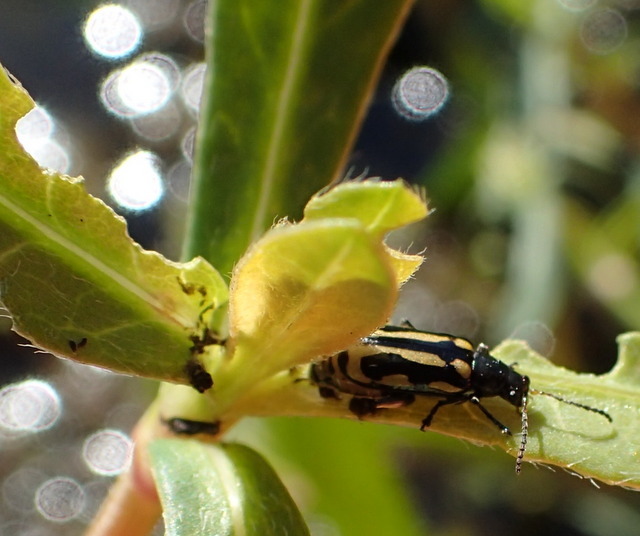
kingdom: Animalia
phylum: Arthropoda
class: Insecta
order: Coleoptera
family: Chrysomelidae
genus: Agasicles
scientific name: Agasicles hygrophila
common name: Alligatorweed flea beetle
